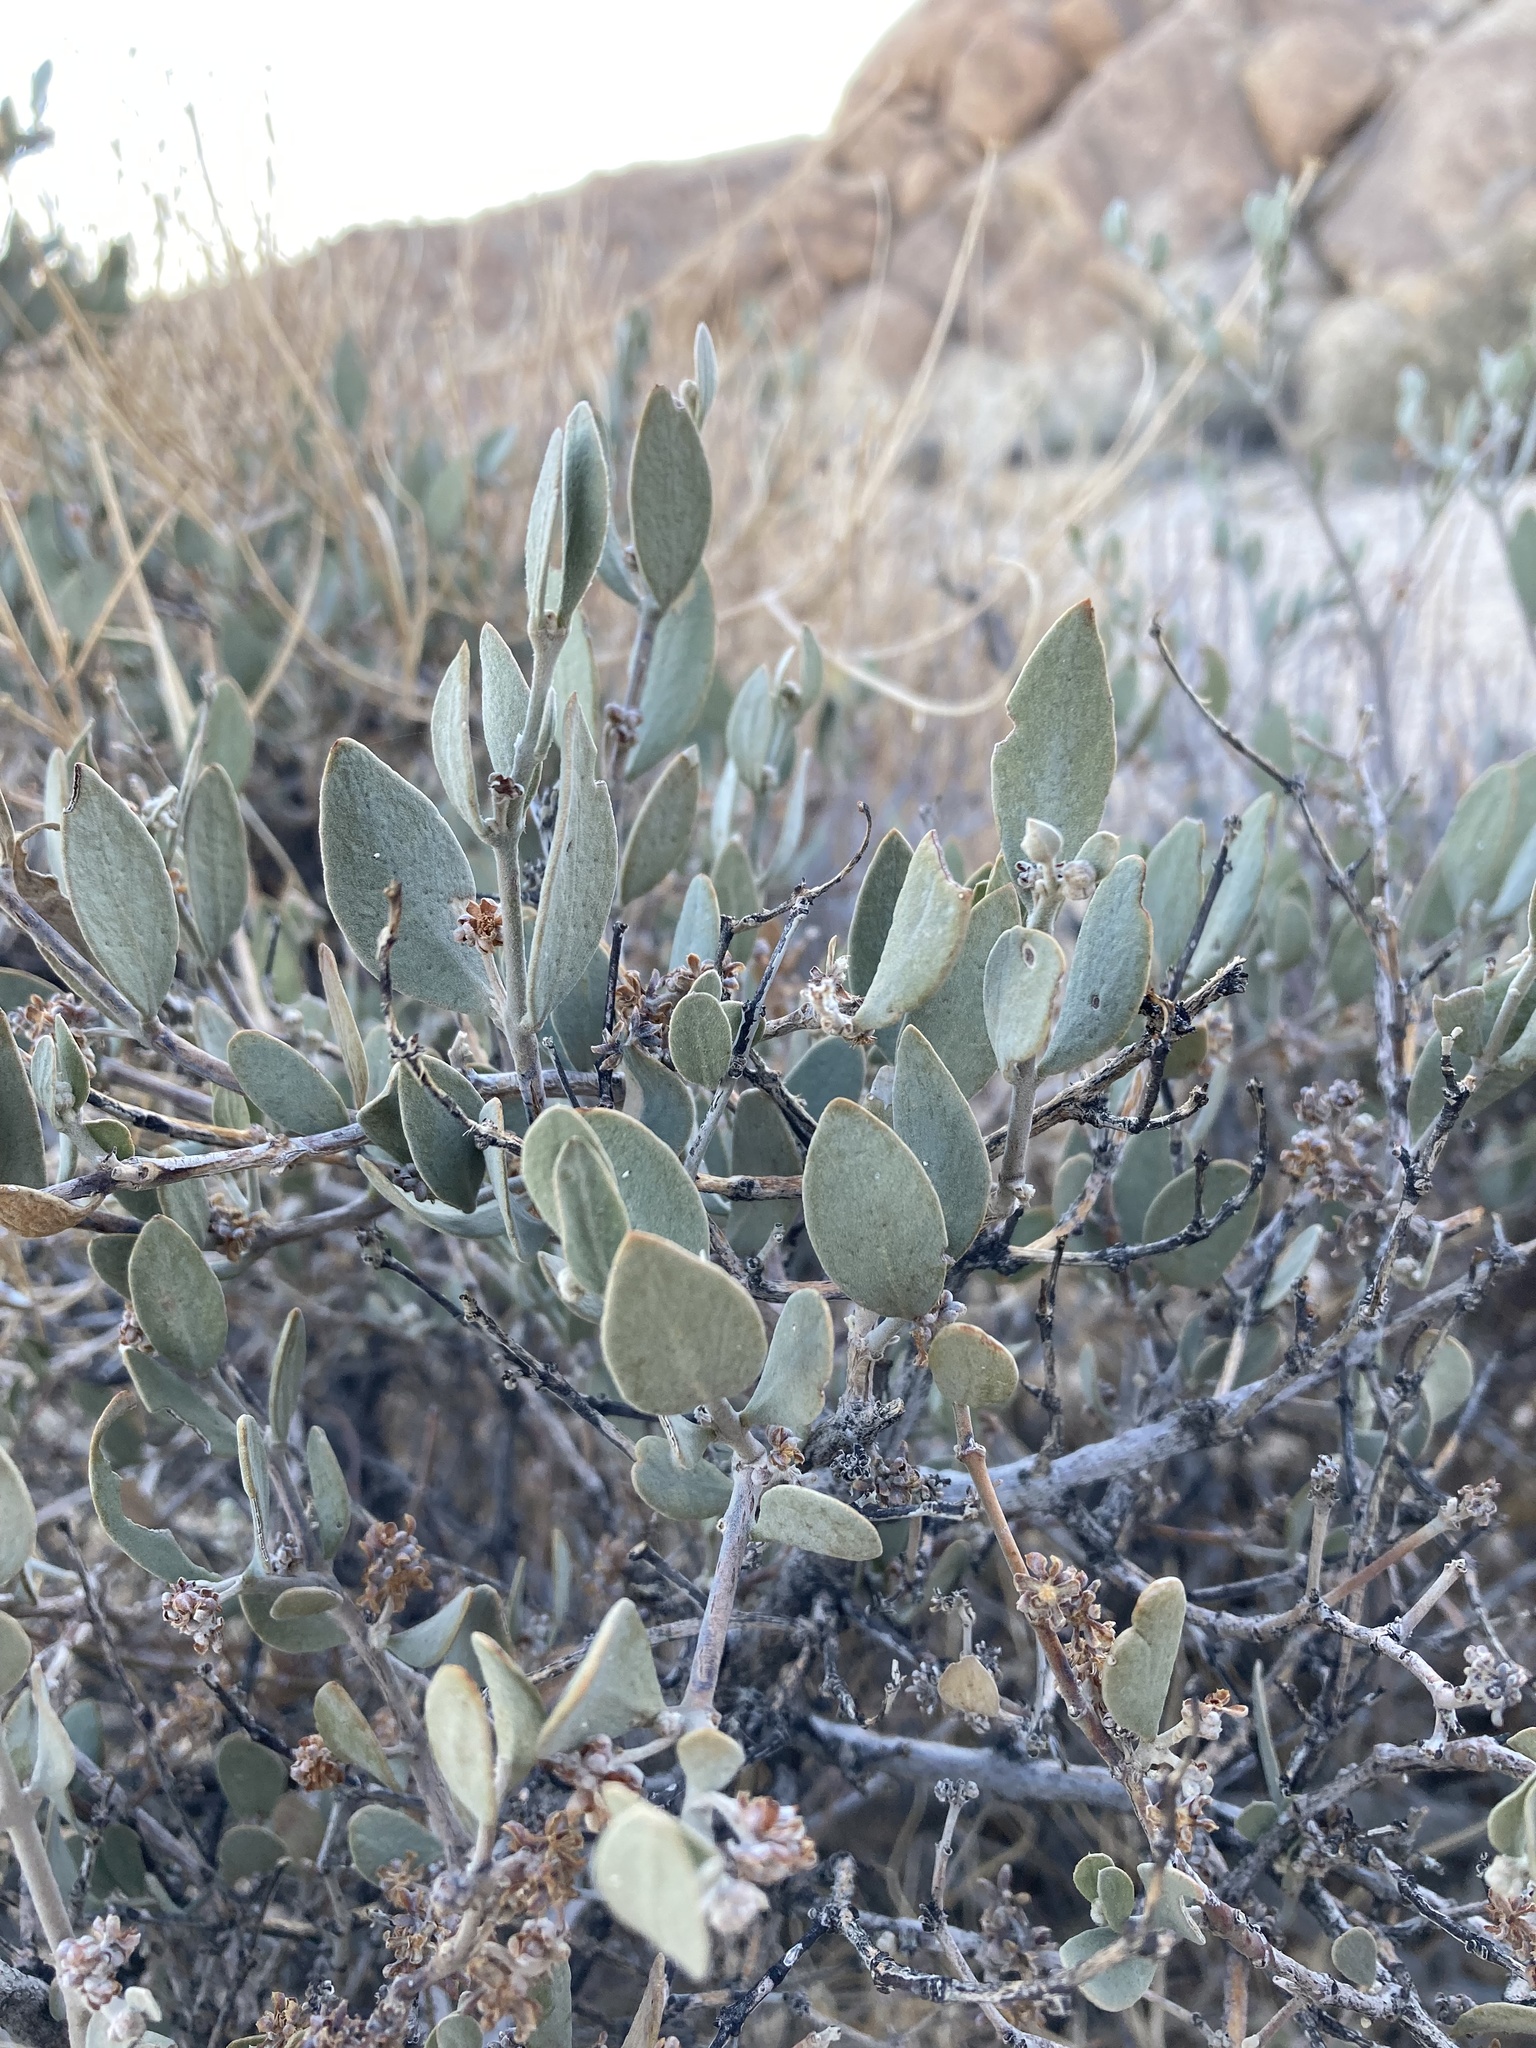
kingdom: Plantae
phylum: Tracheophyta
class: Magnoliopsida
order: Caryophyllales
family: Simmondsiaceae
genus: Simmondsia
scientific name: Simmondsia chinensis
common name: Jojoba
